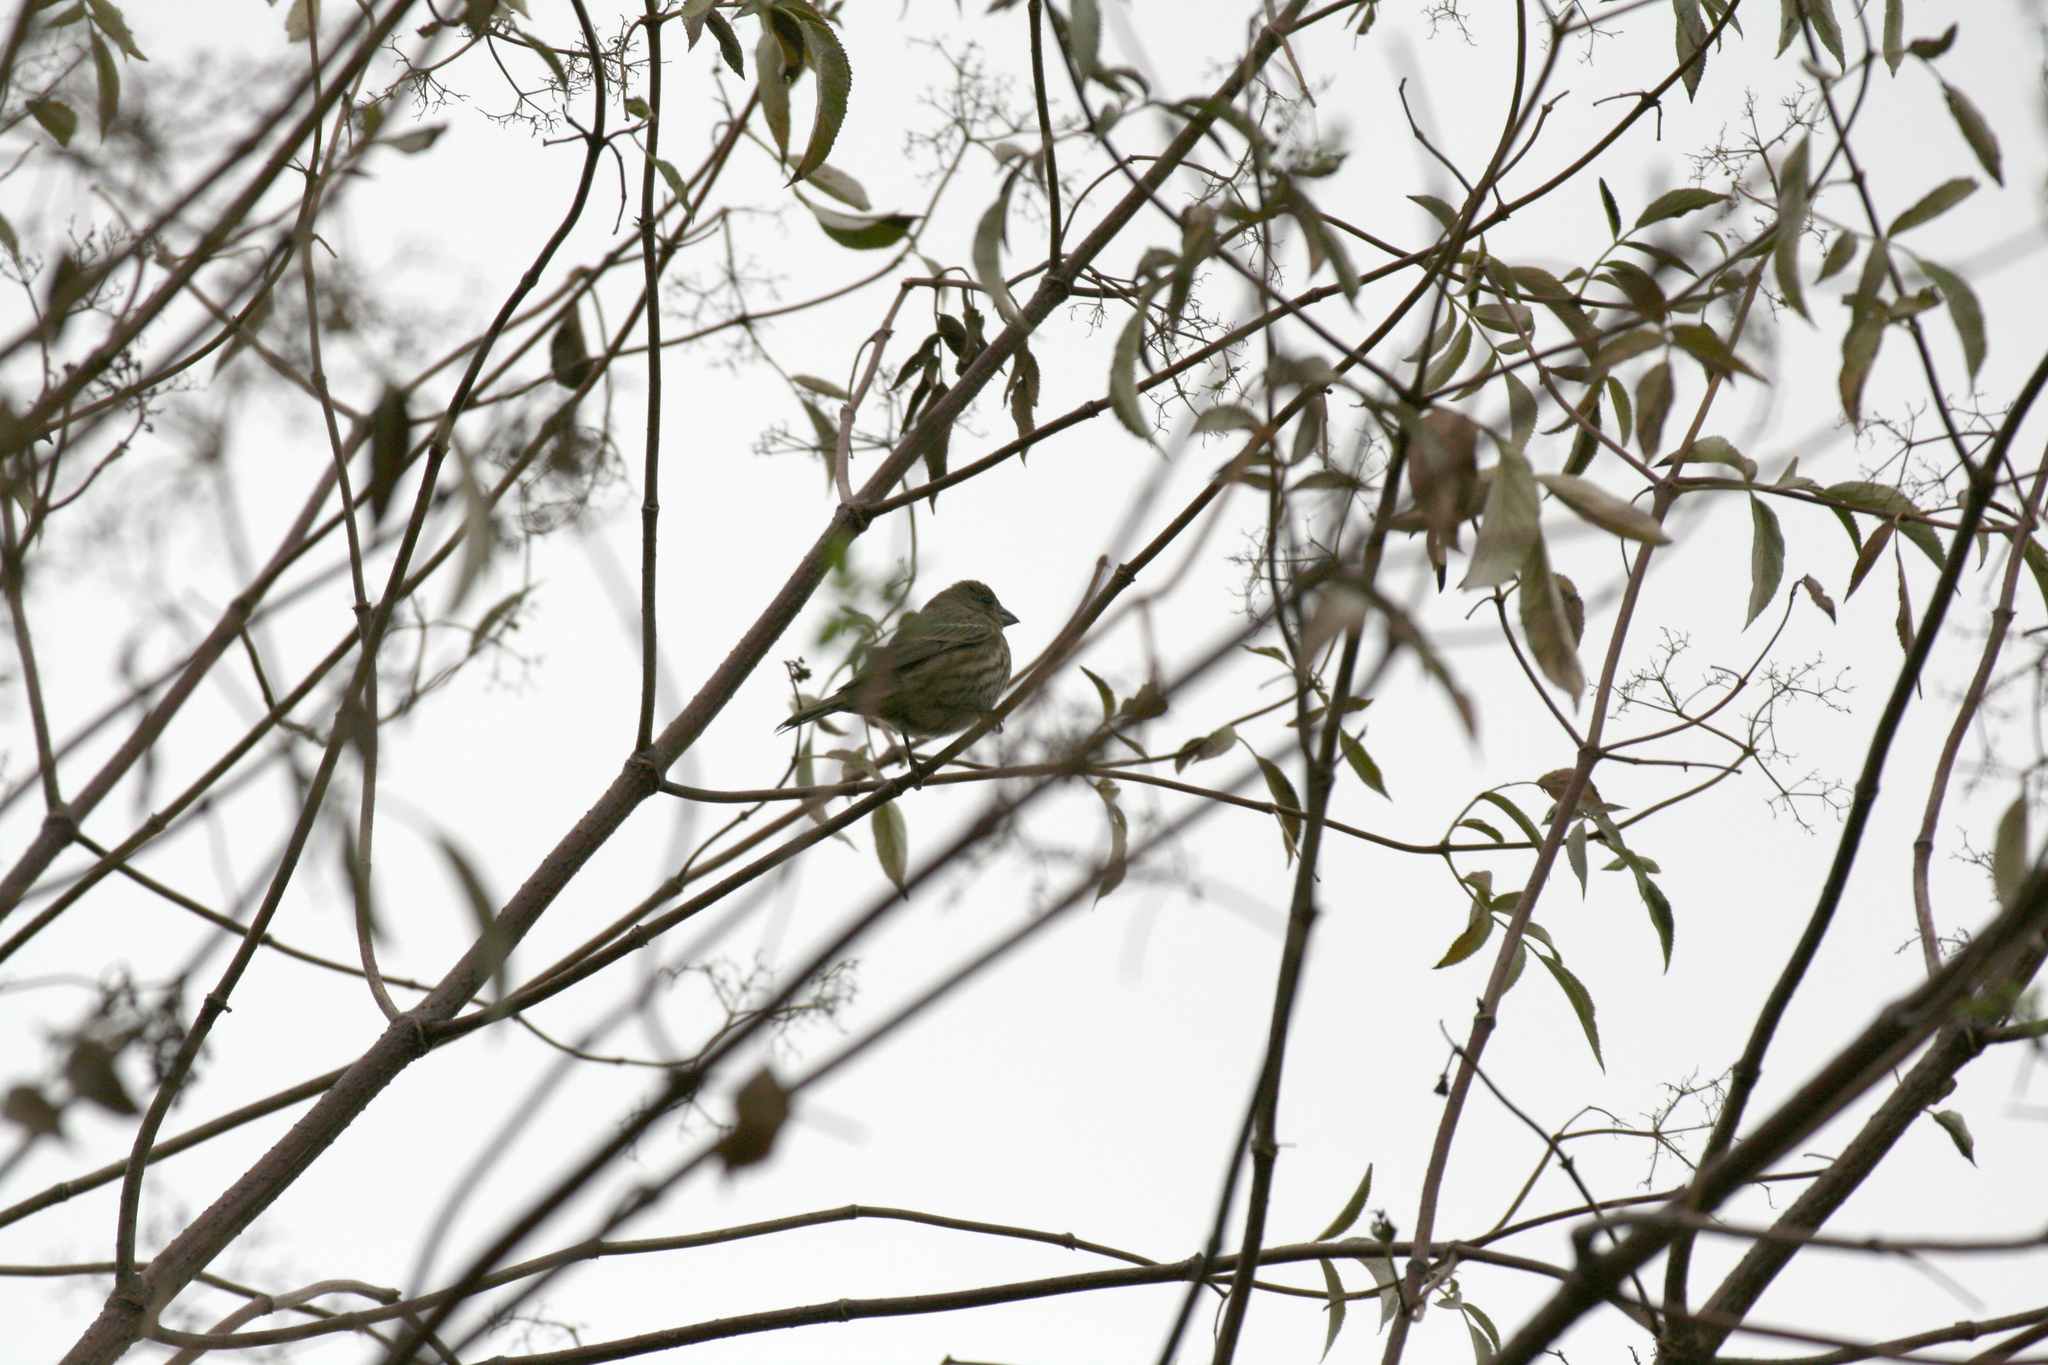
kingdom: Animalia
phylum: Chordata
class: Aves
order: Passeriformes
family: Fringillidae
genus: Haemorhous
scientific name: Haemorhous mexicanus
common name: House finch
